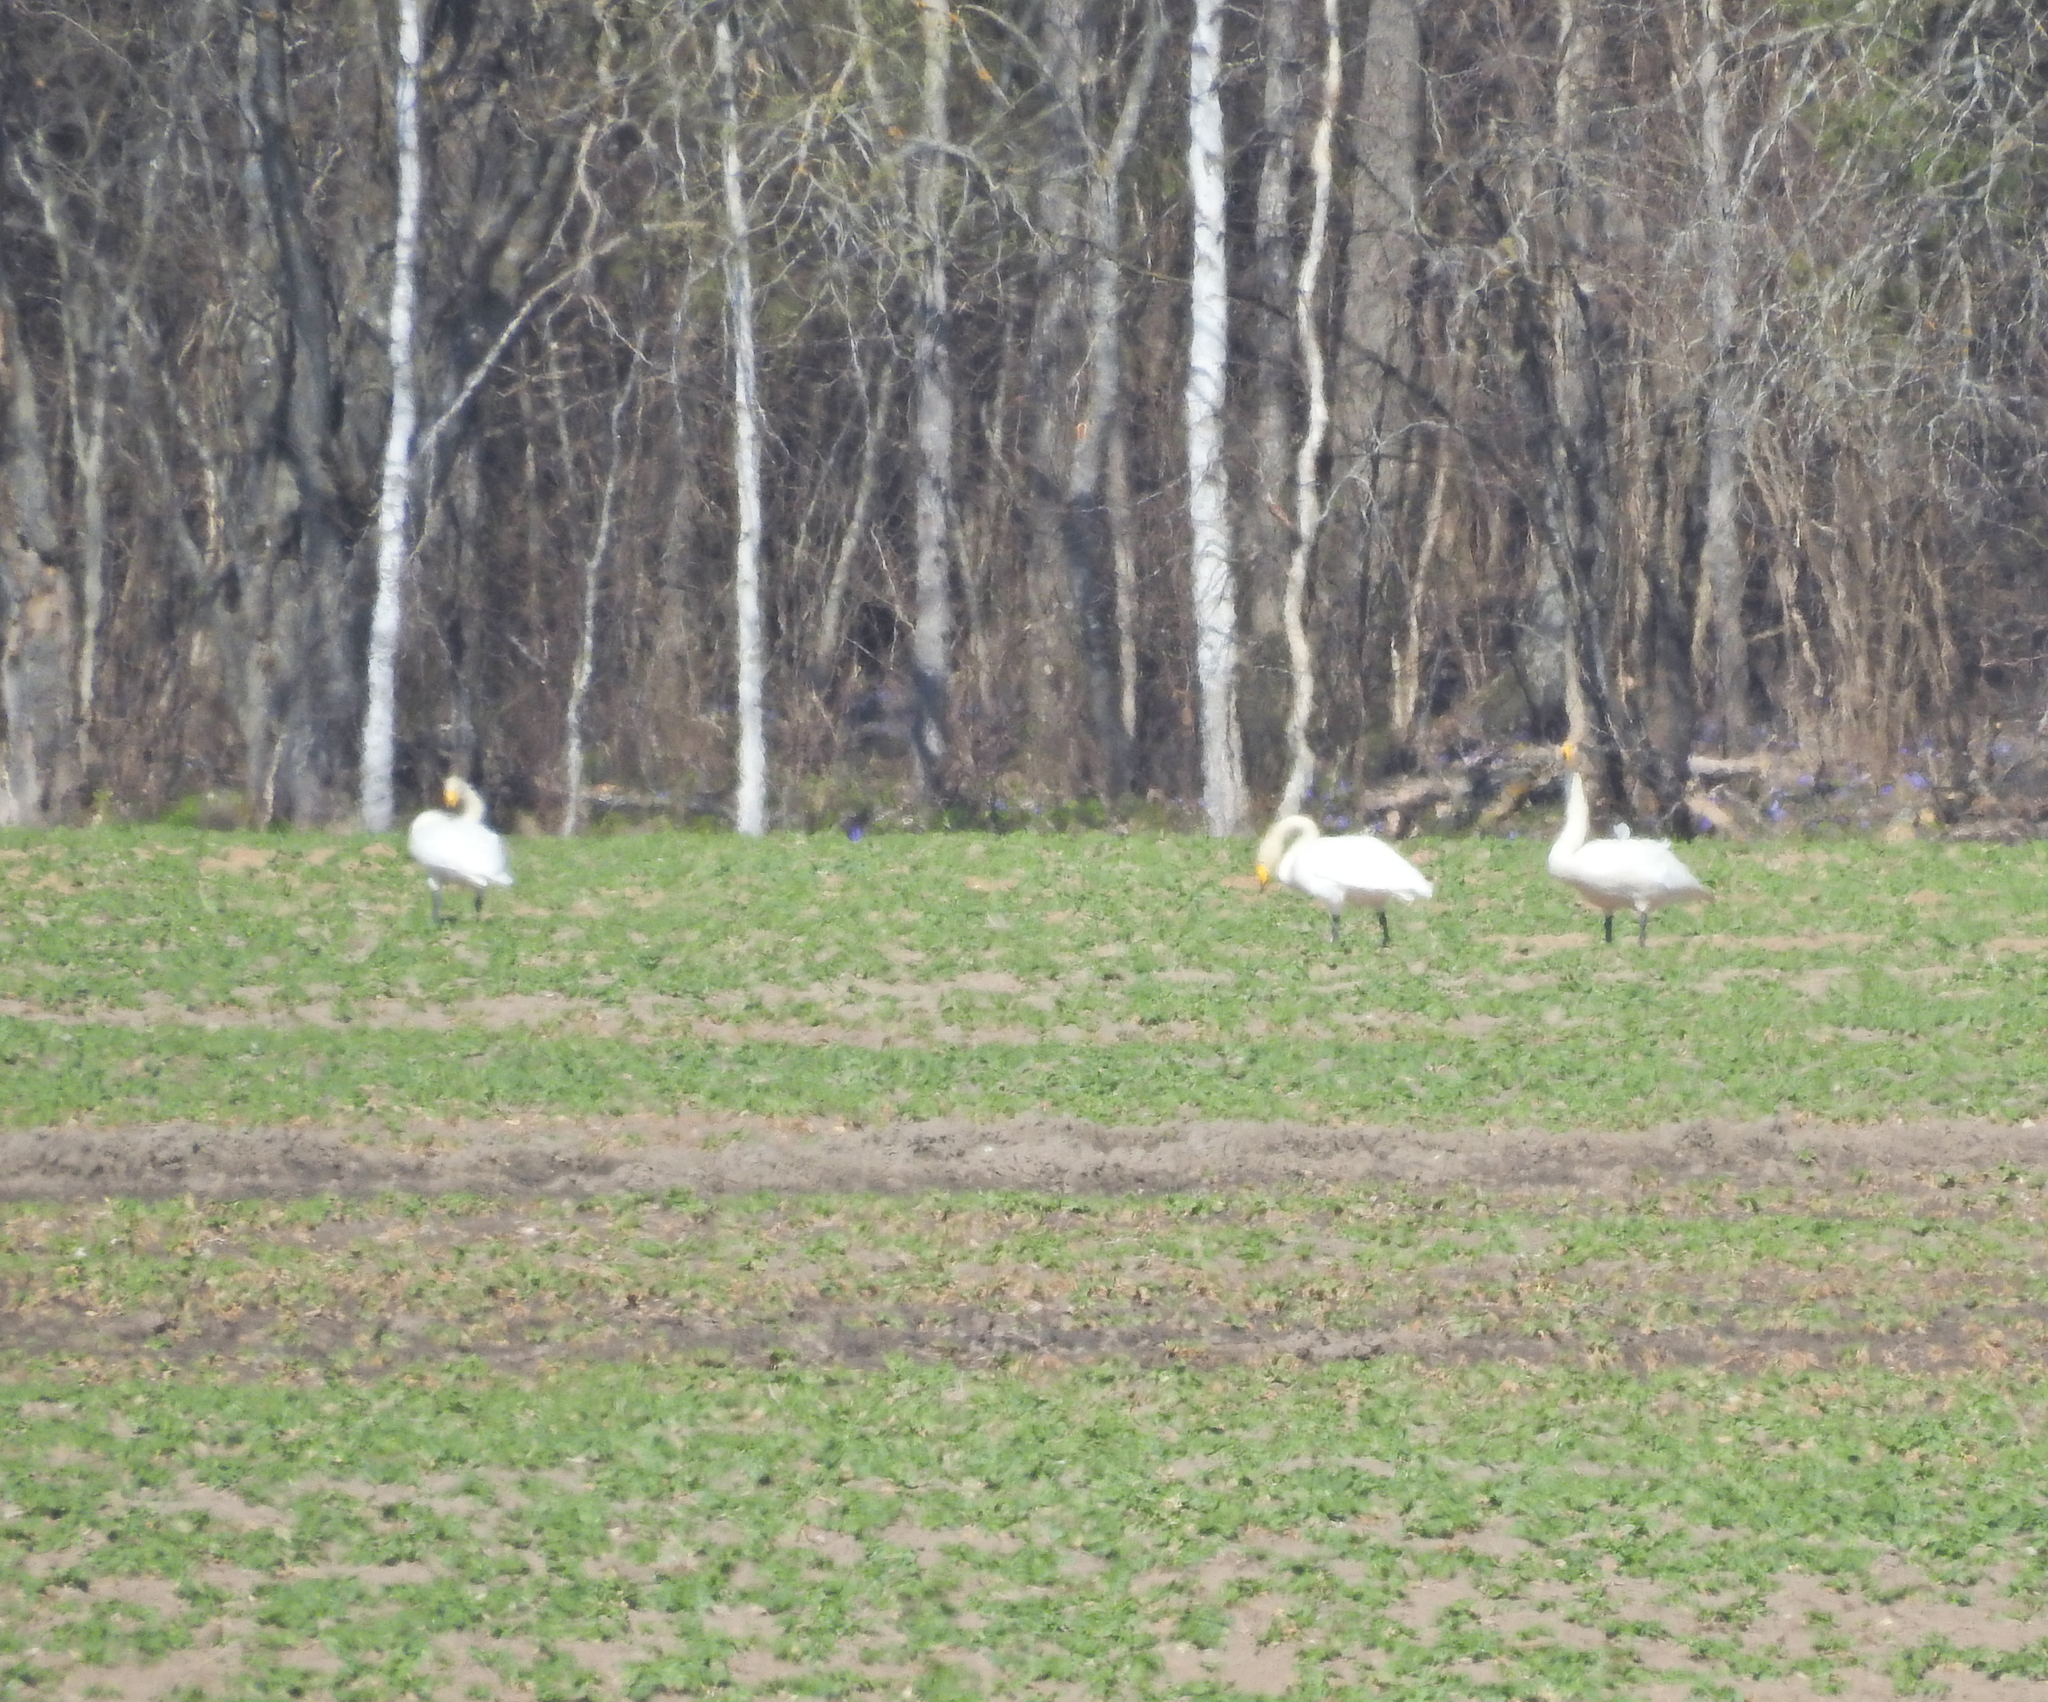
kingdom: Animalia
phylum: Chordata
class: Aves
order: Anseriformes
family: Anatidae
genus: Cygnus
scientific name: Cygnus cygnus
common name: Whooper swan
